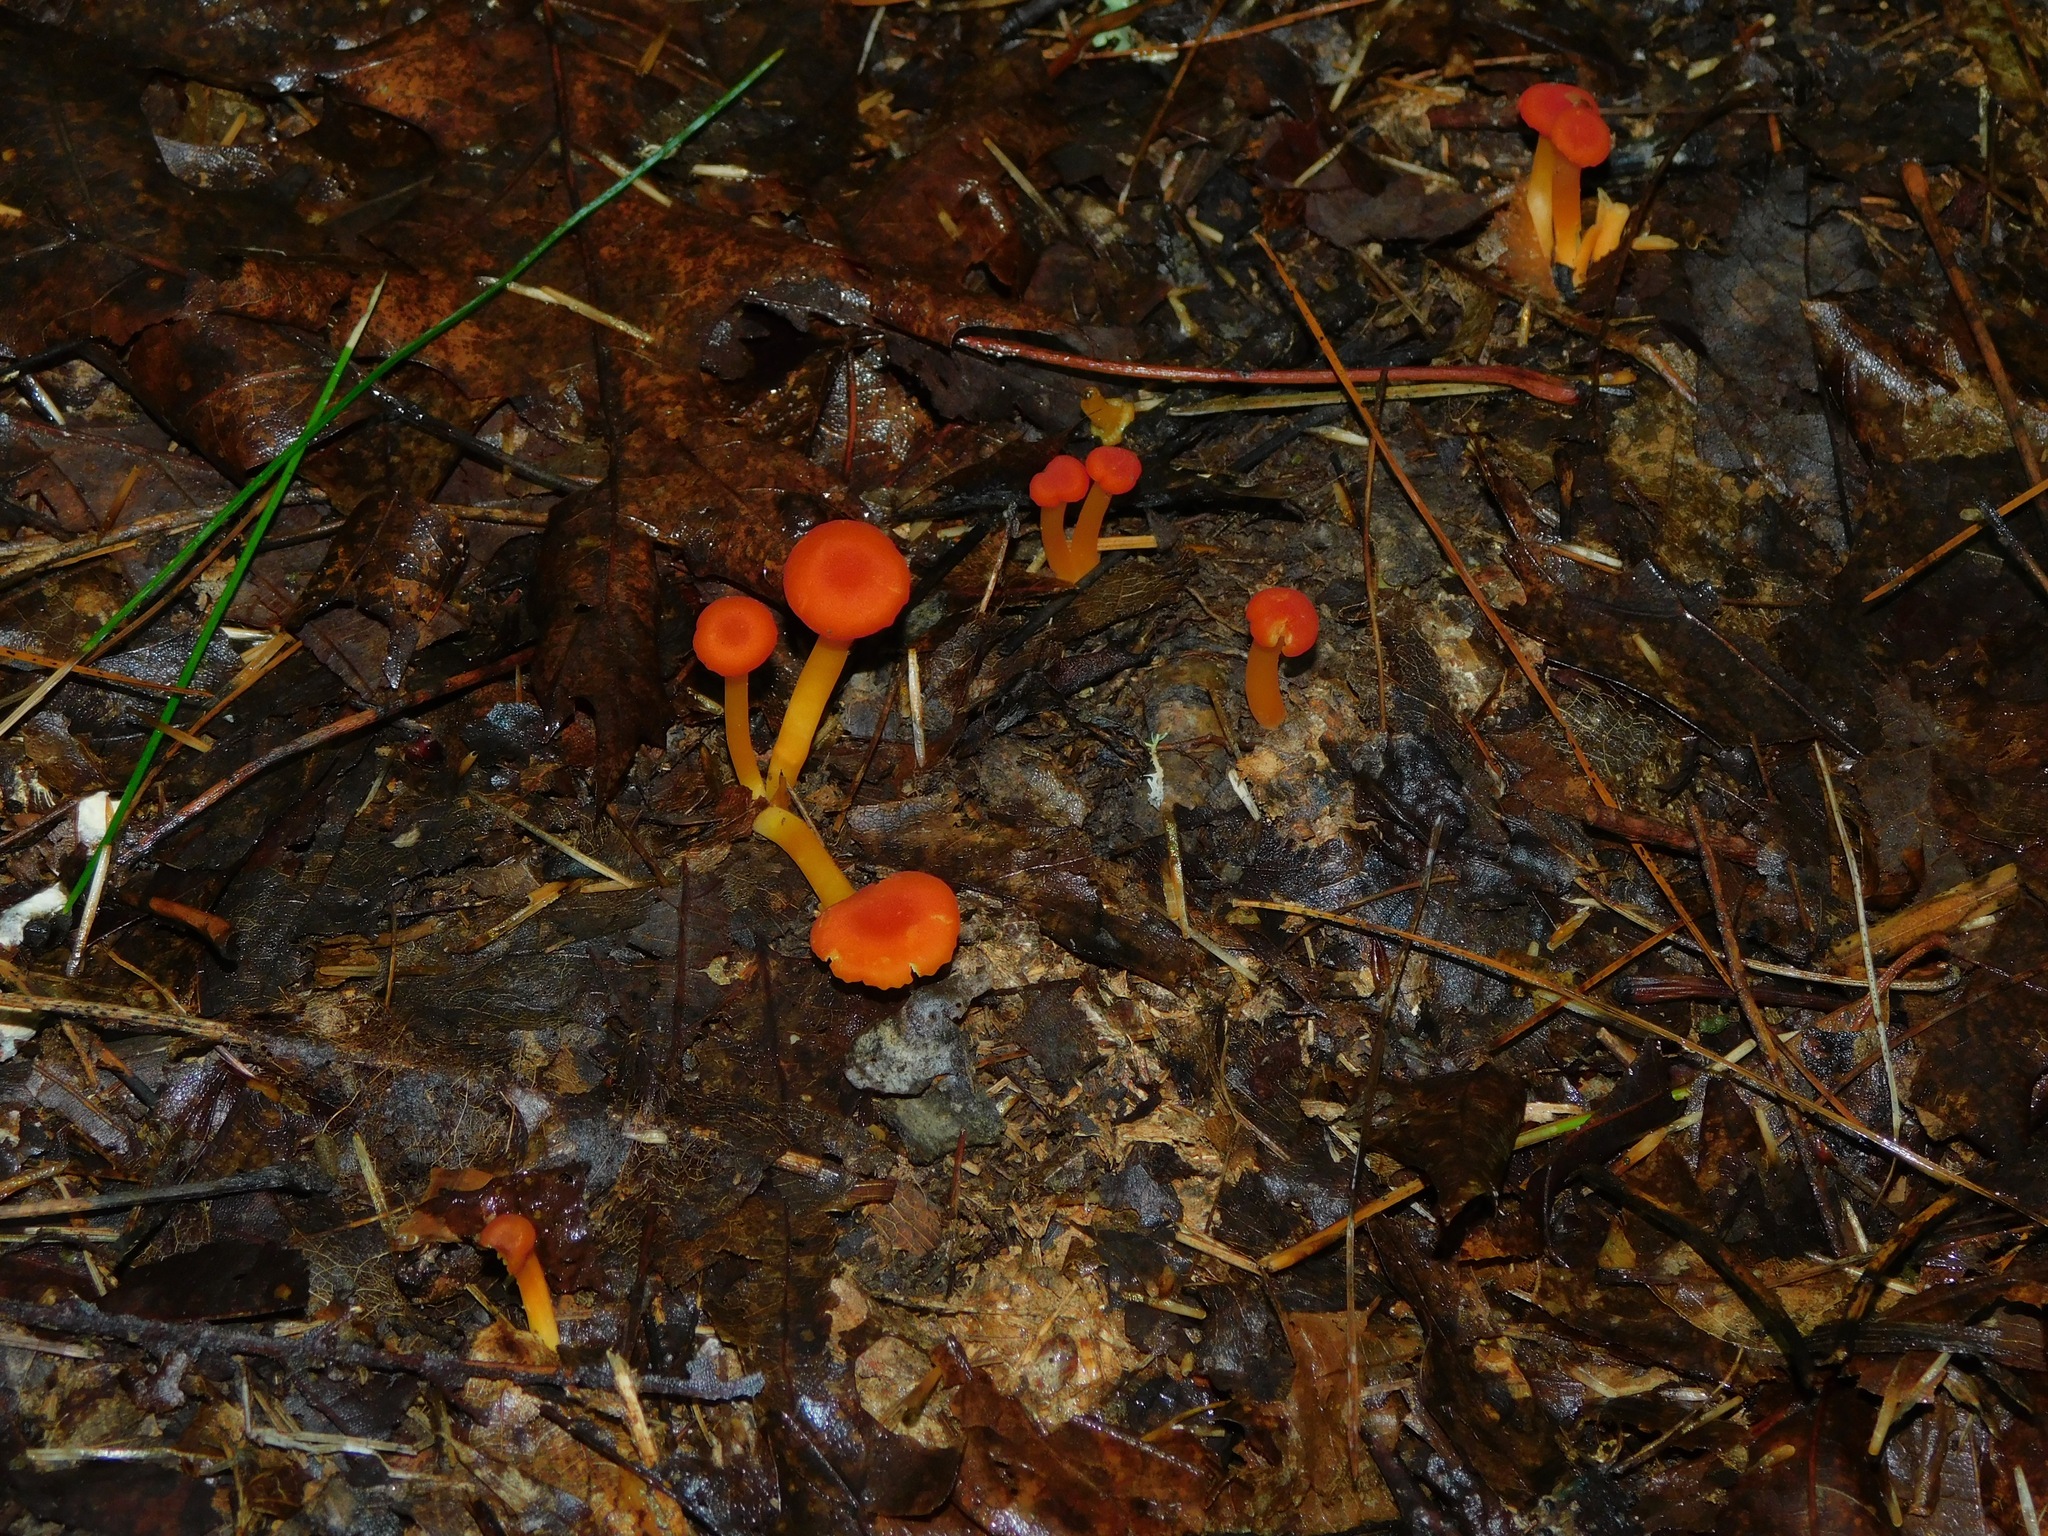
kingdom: Fungi
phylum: Basidiomycota
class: Agaricomycetes
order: Agaricales
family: Hygrophoraceae
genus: Hygrocybe
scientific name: Hygrocybe miniata
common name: Vermilion waxcap
